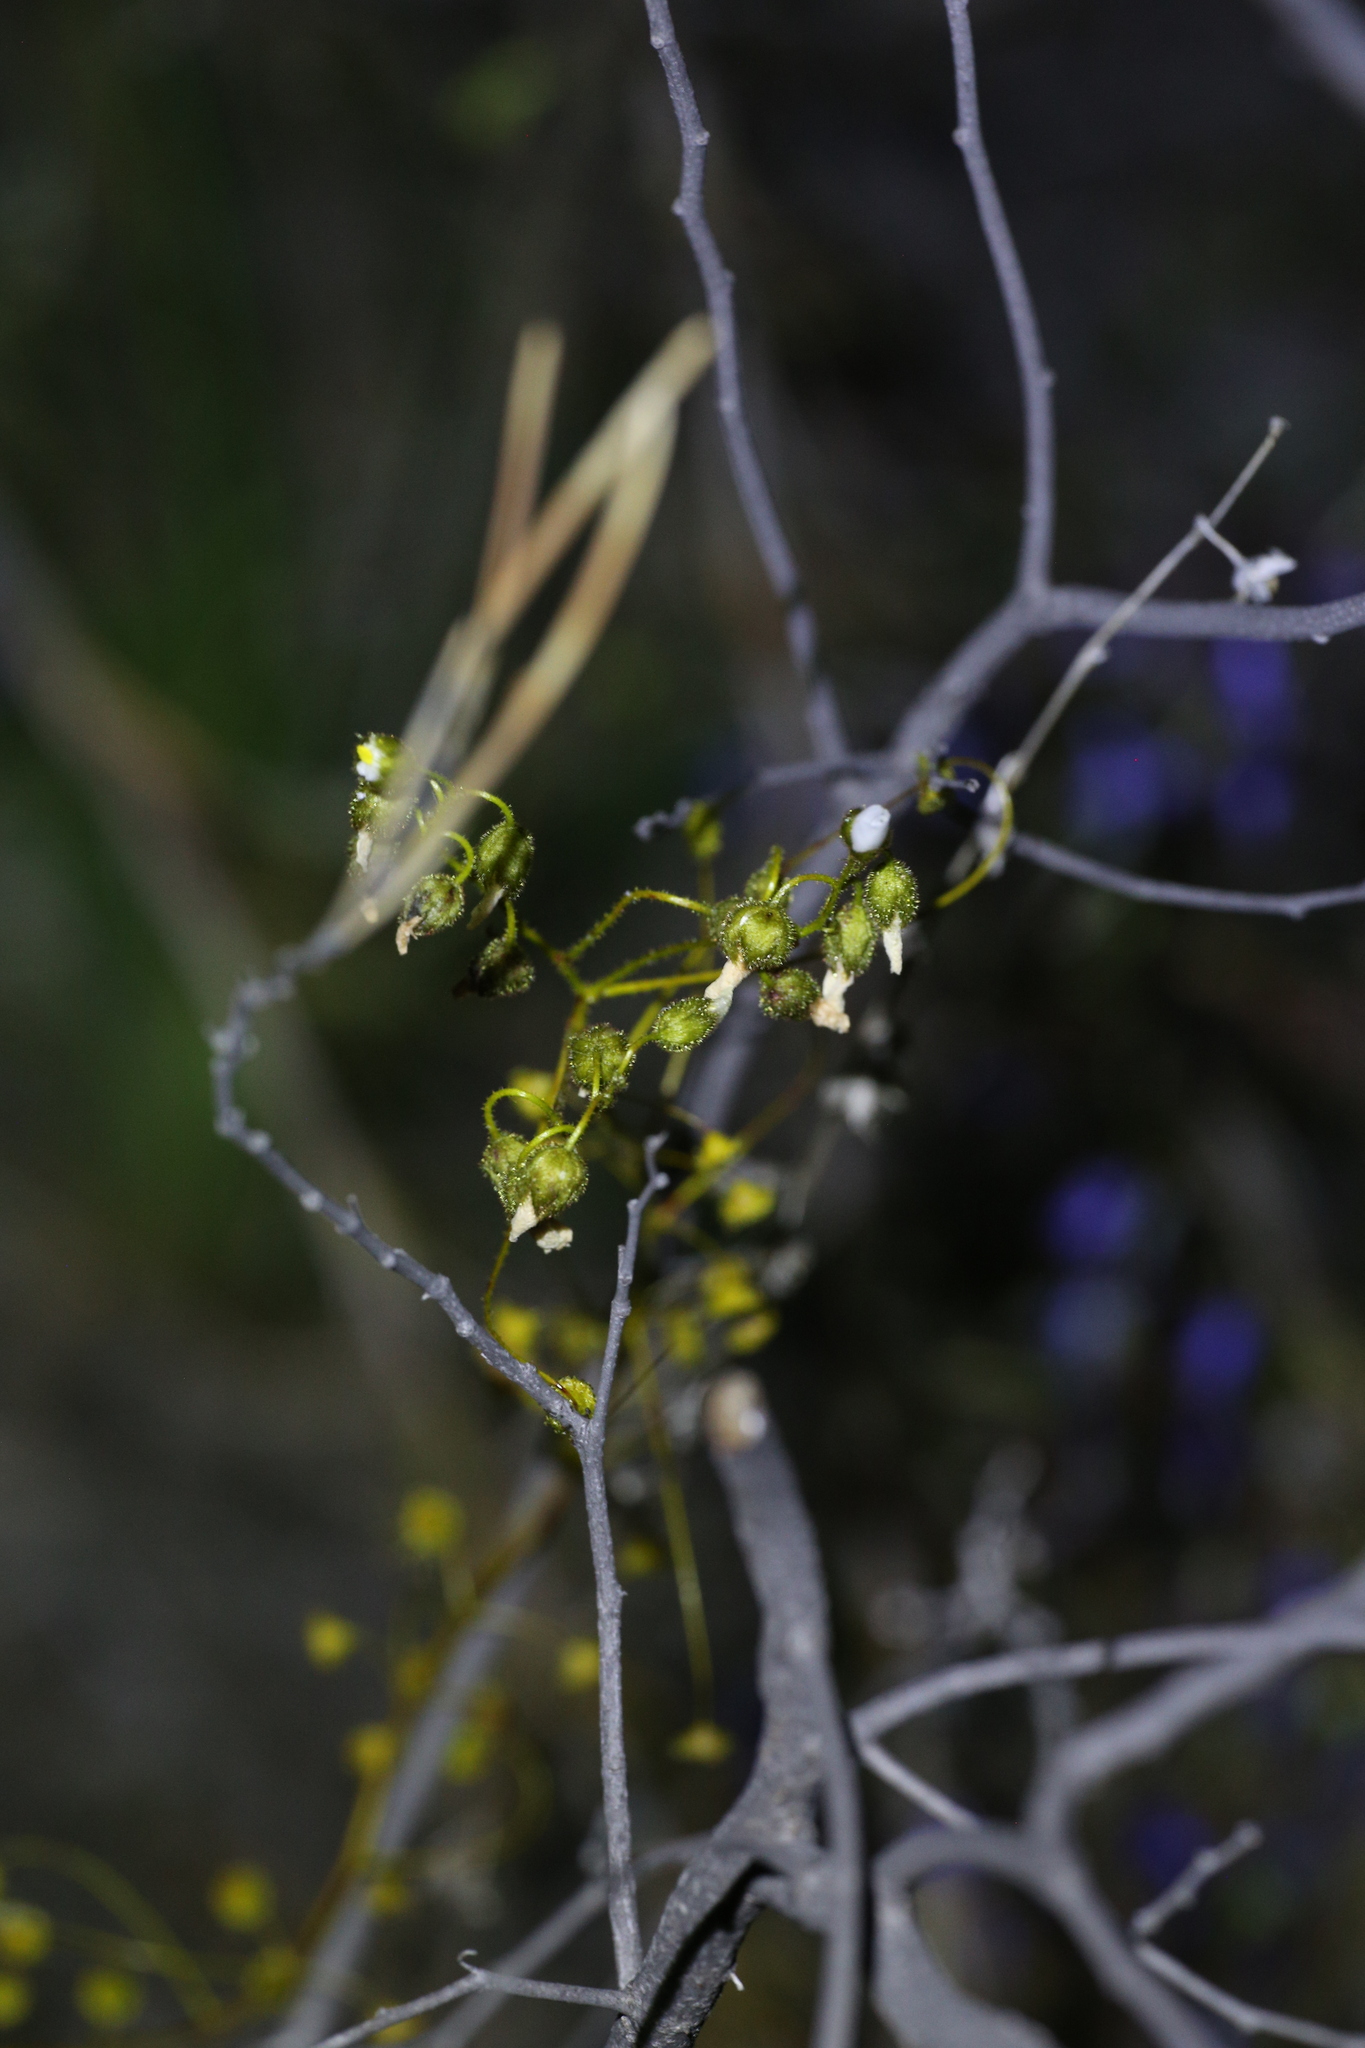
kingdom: Plantae
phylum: Tracheophyta
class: Magnoliopsida
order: Caryophyllales
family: Droseraceae
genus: Drosera
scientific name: Drosera macrantha
